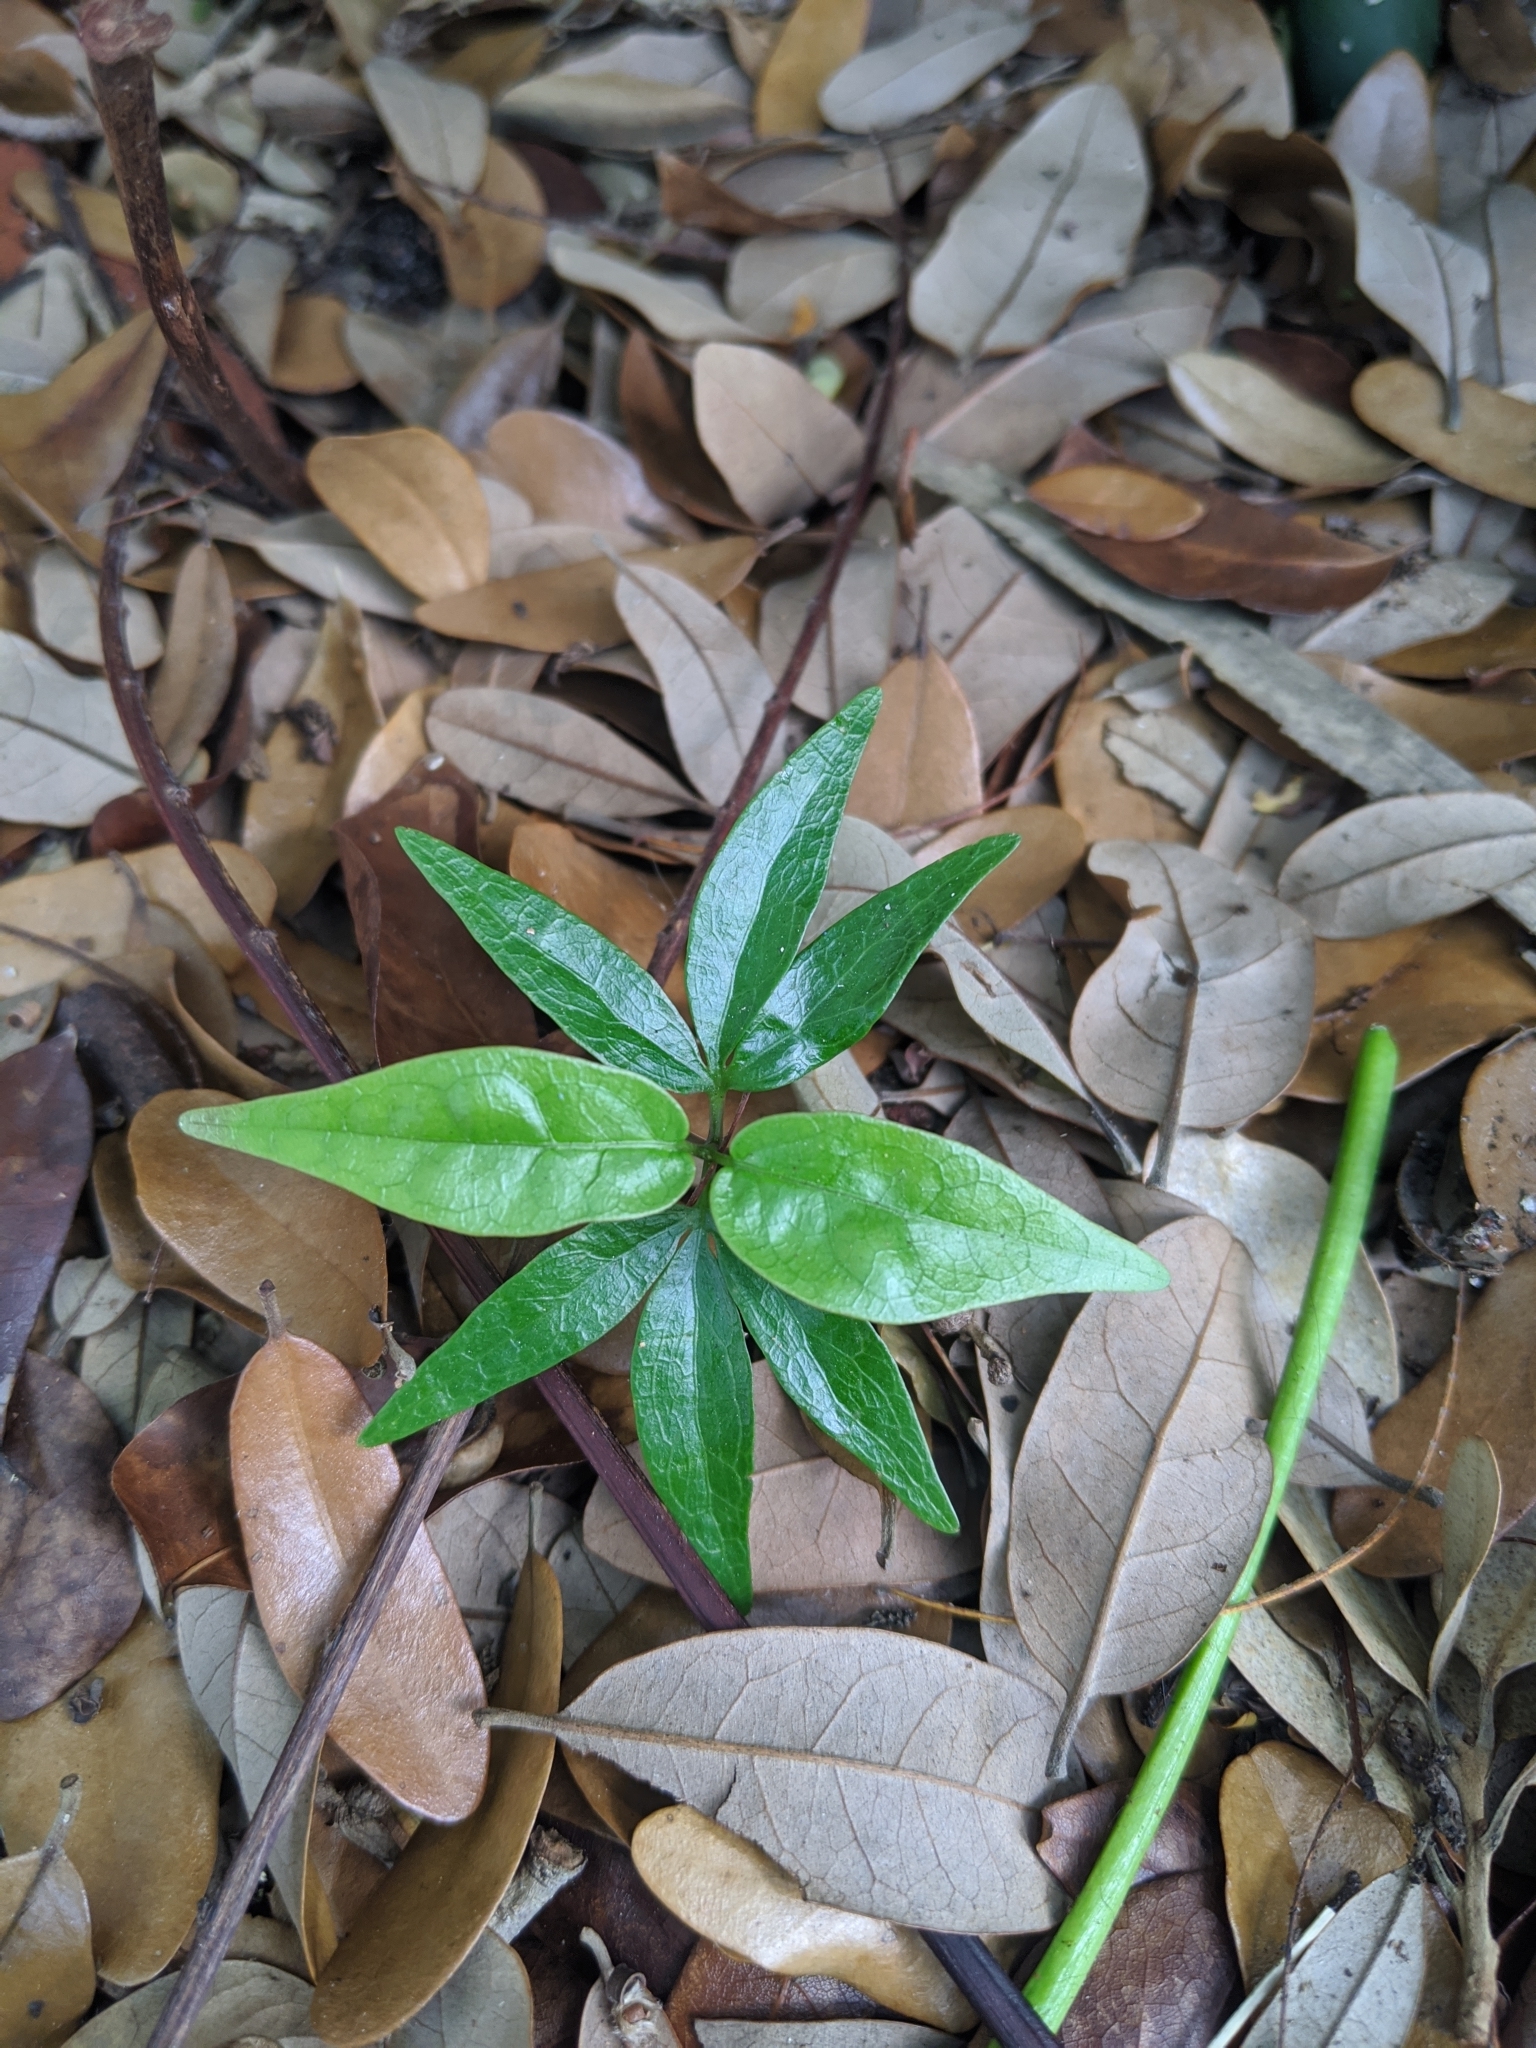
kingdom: Plantae
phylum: Tracheophyta
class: Magnoliopsida
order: Sapindales
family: Burseraceae
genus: Bursera
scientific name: Bursera simaruba
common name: Turpentine tree
